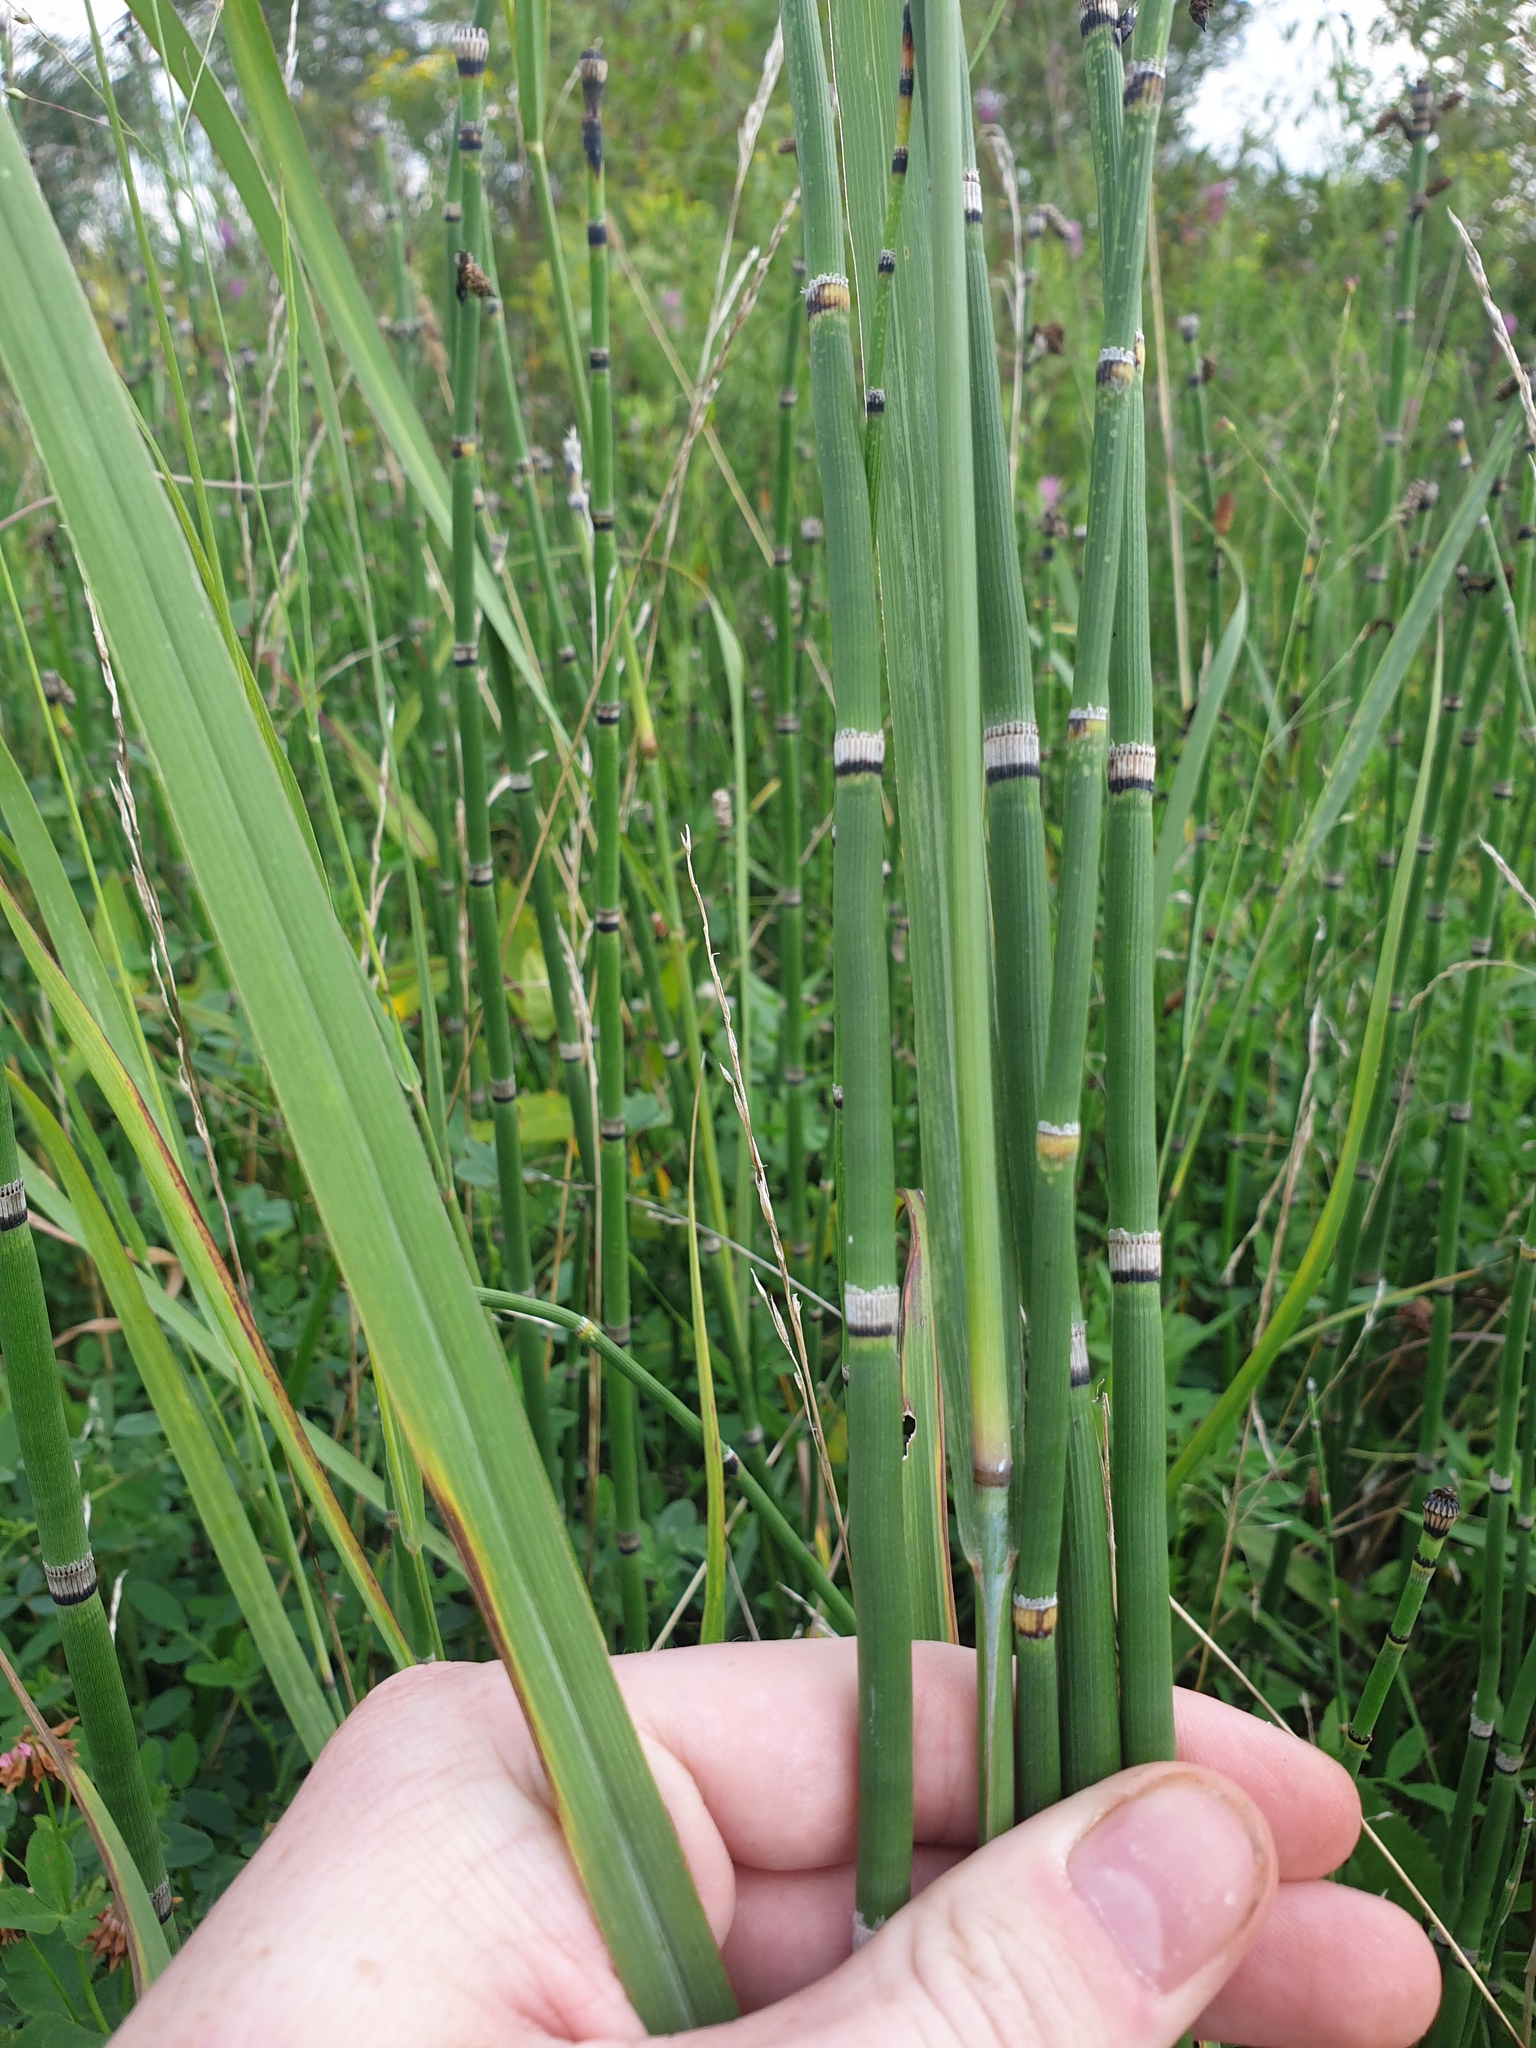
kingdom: Plantae
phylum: Tracheophyta
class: Polypodiopsida
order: Equisetales
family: Equisetaceae
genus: Equisetum
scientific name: Equisetum praealtum
